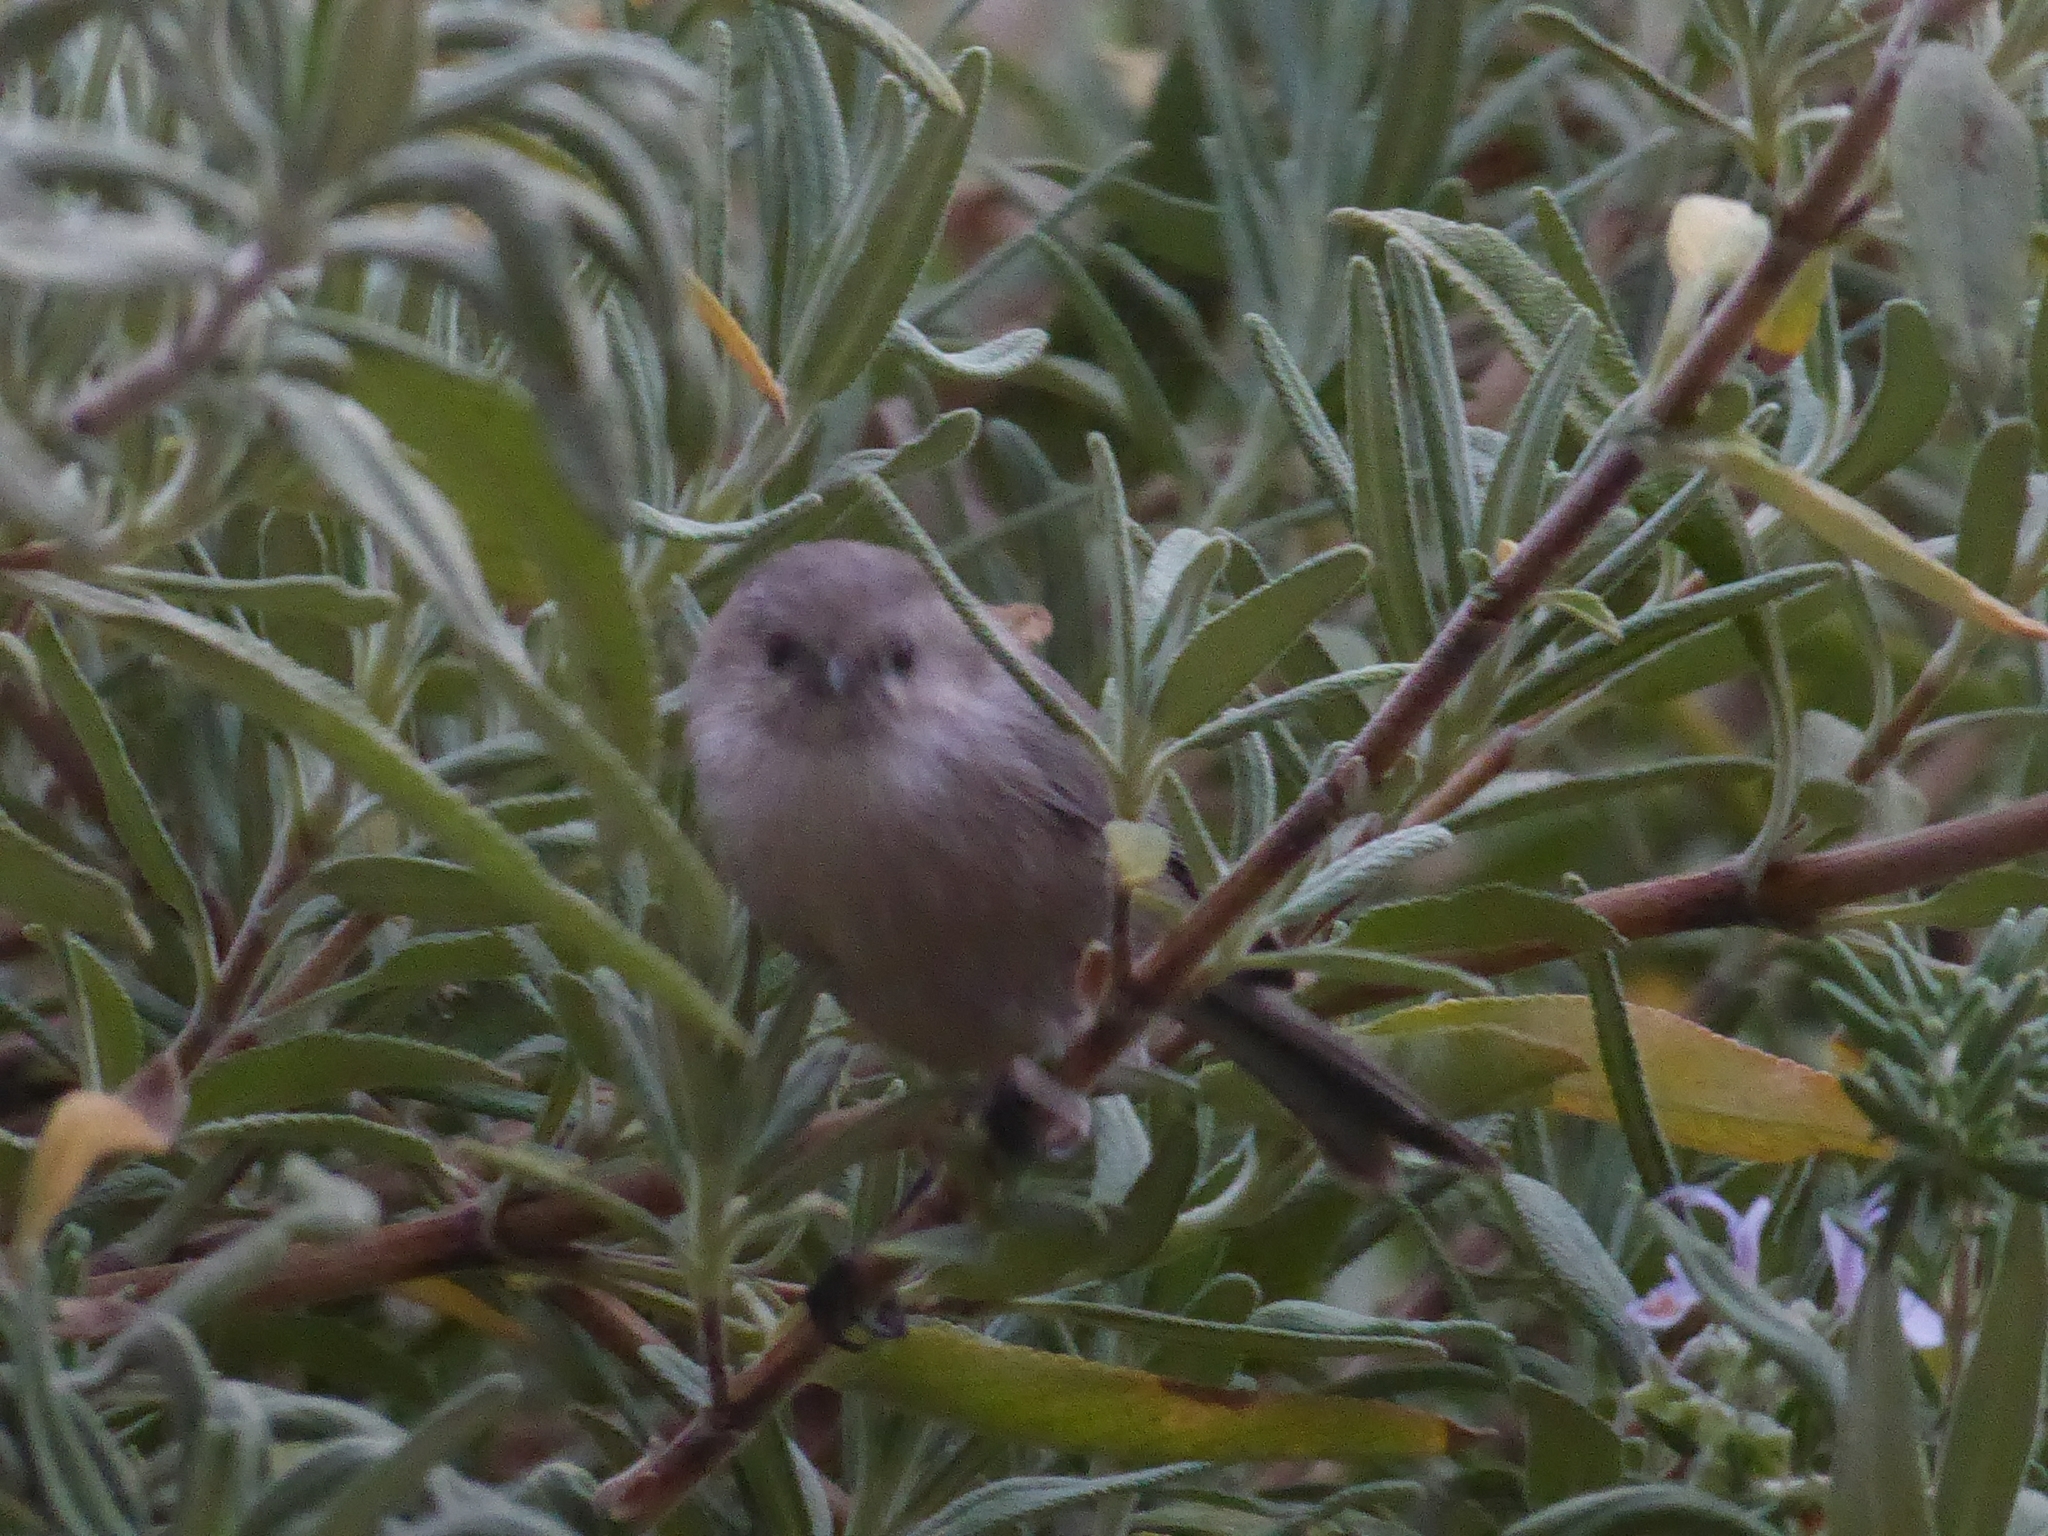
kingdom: Animalia
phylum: Chordata
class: Aves
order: Passeriformes
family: Aegithalidae
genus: Psaltriparus
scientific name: Psaltriparus minimus
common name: American bushtit
